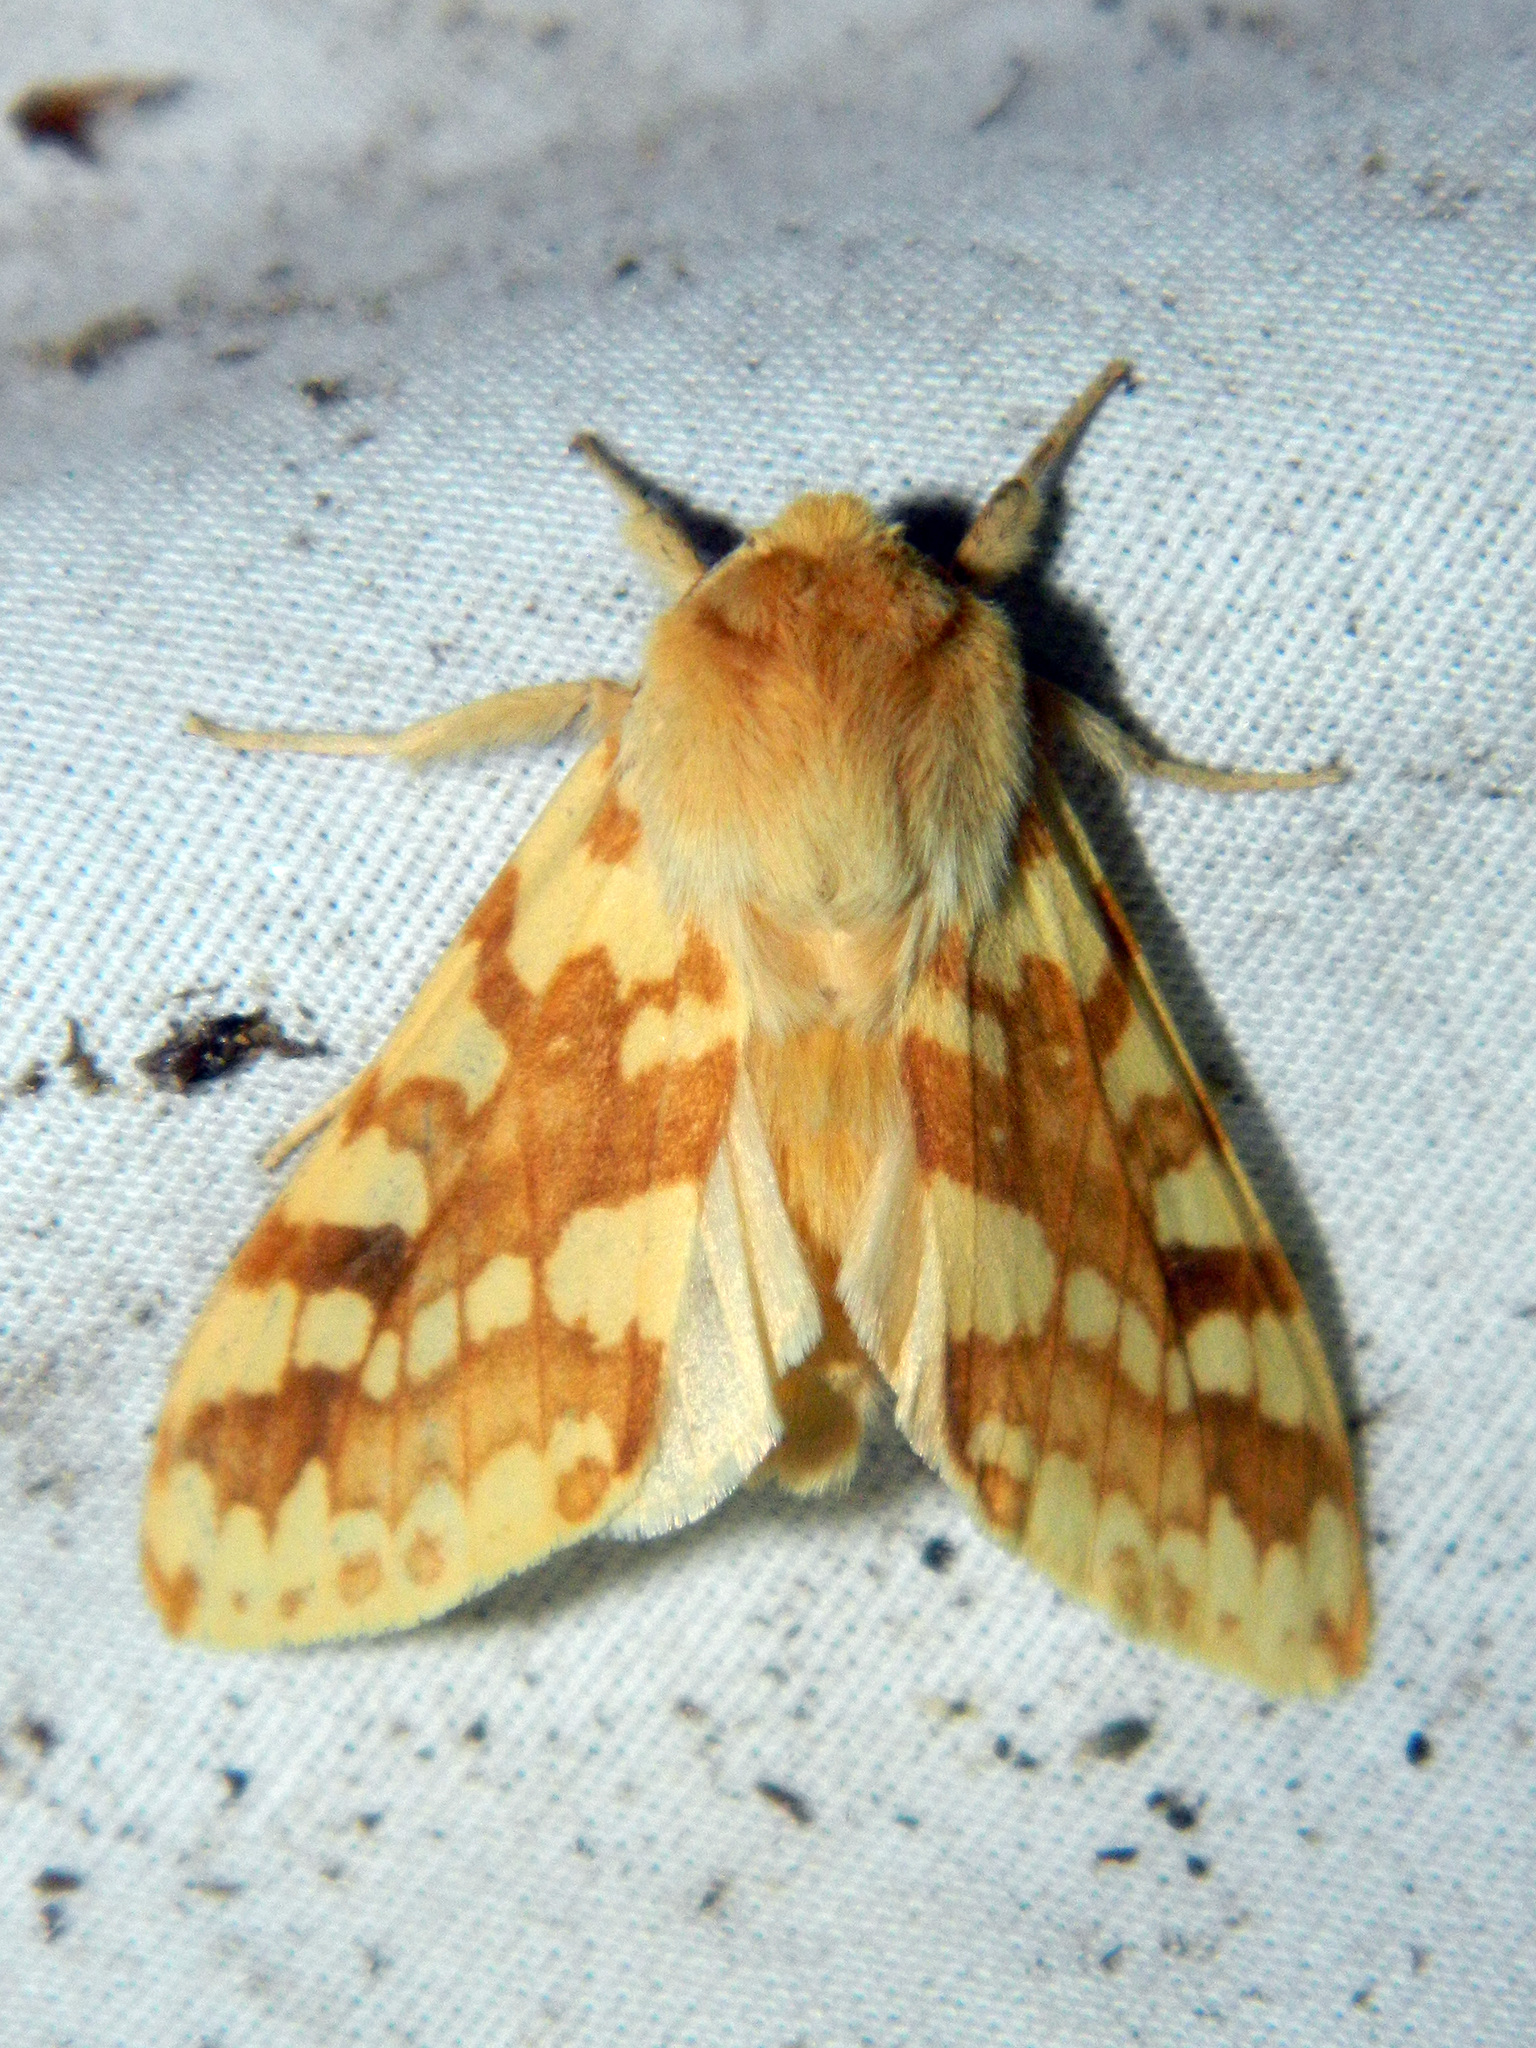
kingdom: Animalia
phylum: Arthropoda
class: Insecta
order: Lepidoptera
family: Erebidae
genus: Lophocampa
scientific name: Lophocampa maculata
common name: Spotted tussock moth
